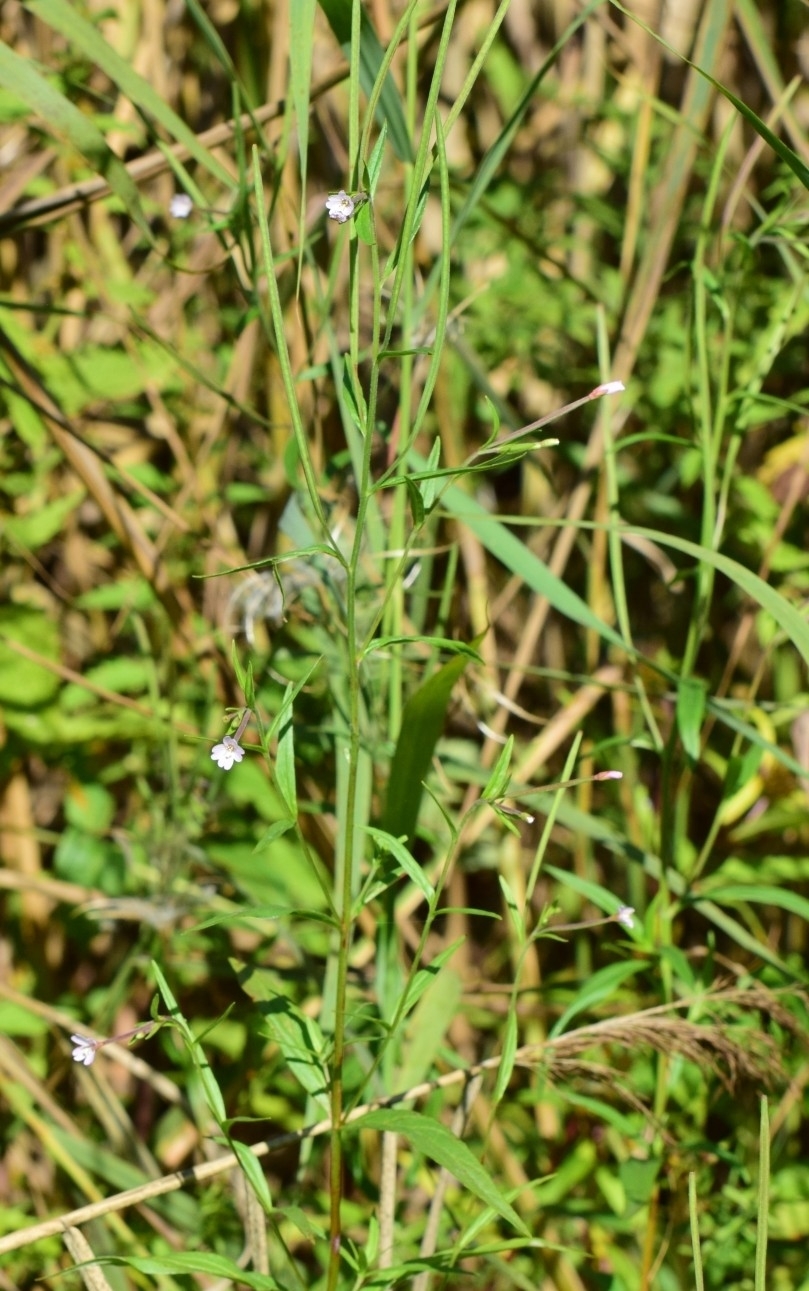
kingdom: Plantae
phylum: Tracheophyta
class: Magnoliopsida
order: Myrtales
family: Onagraceae
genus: Epilobium
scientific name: Epilobium palustre
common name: Marsh willowherb
